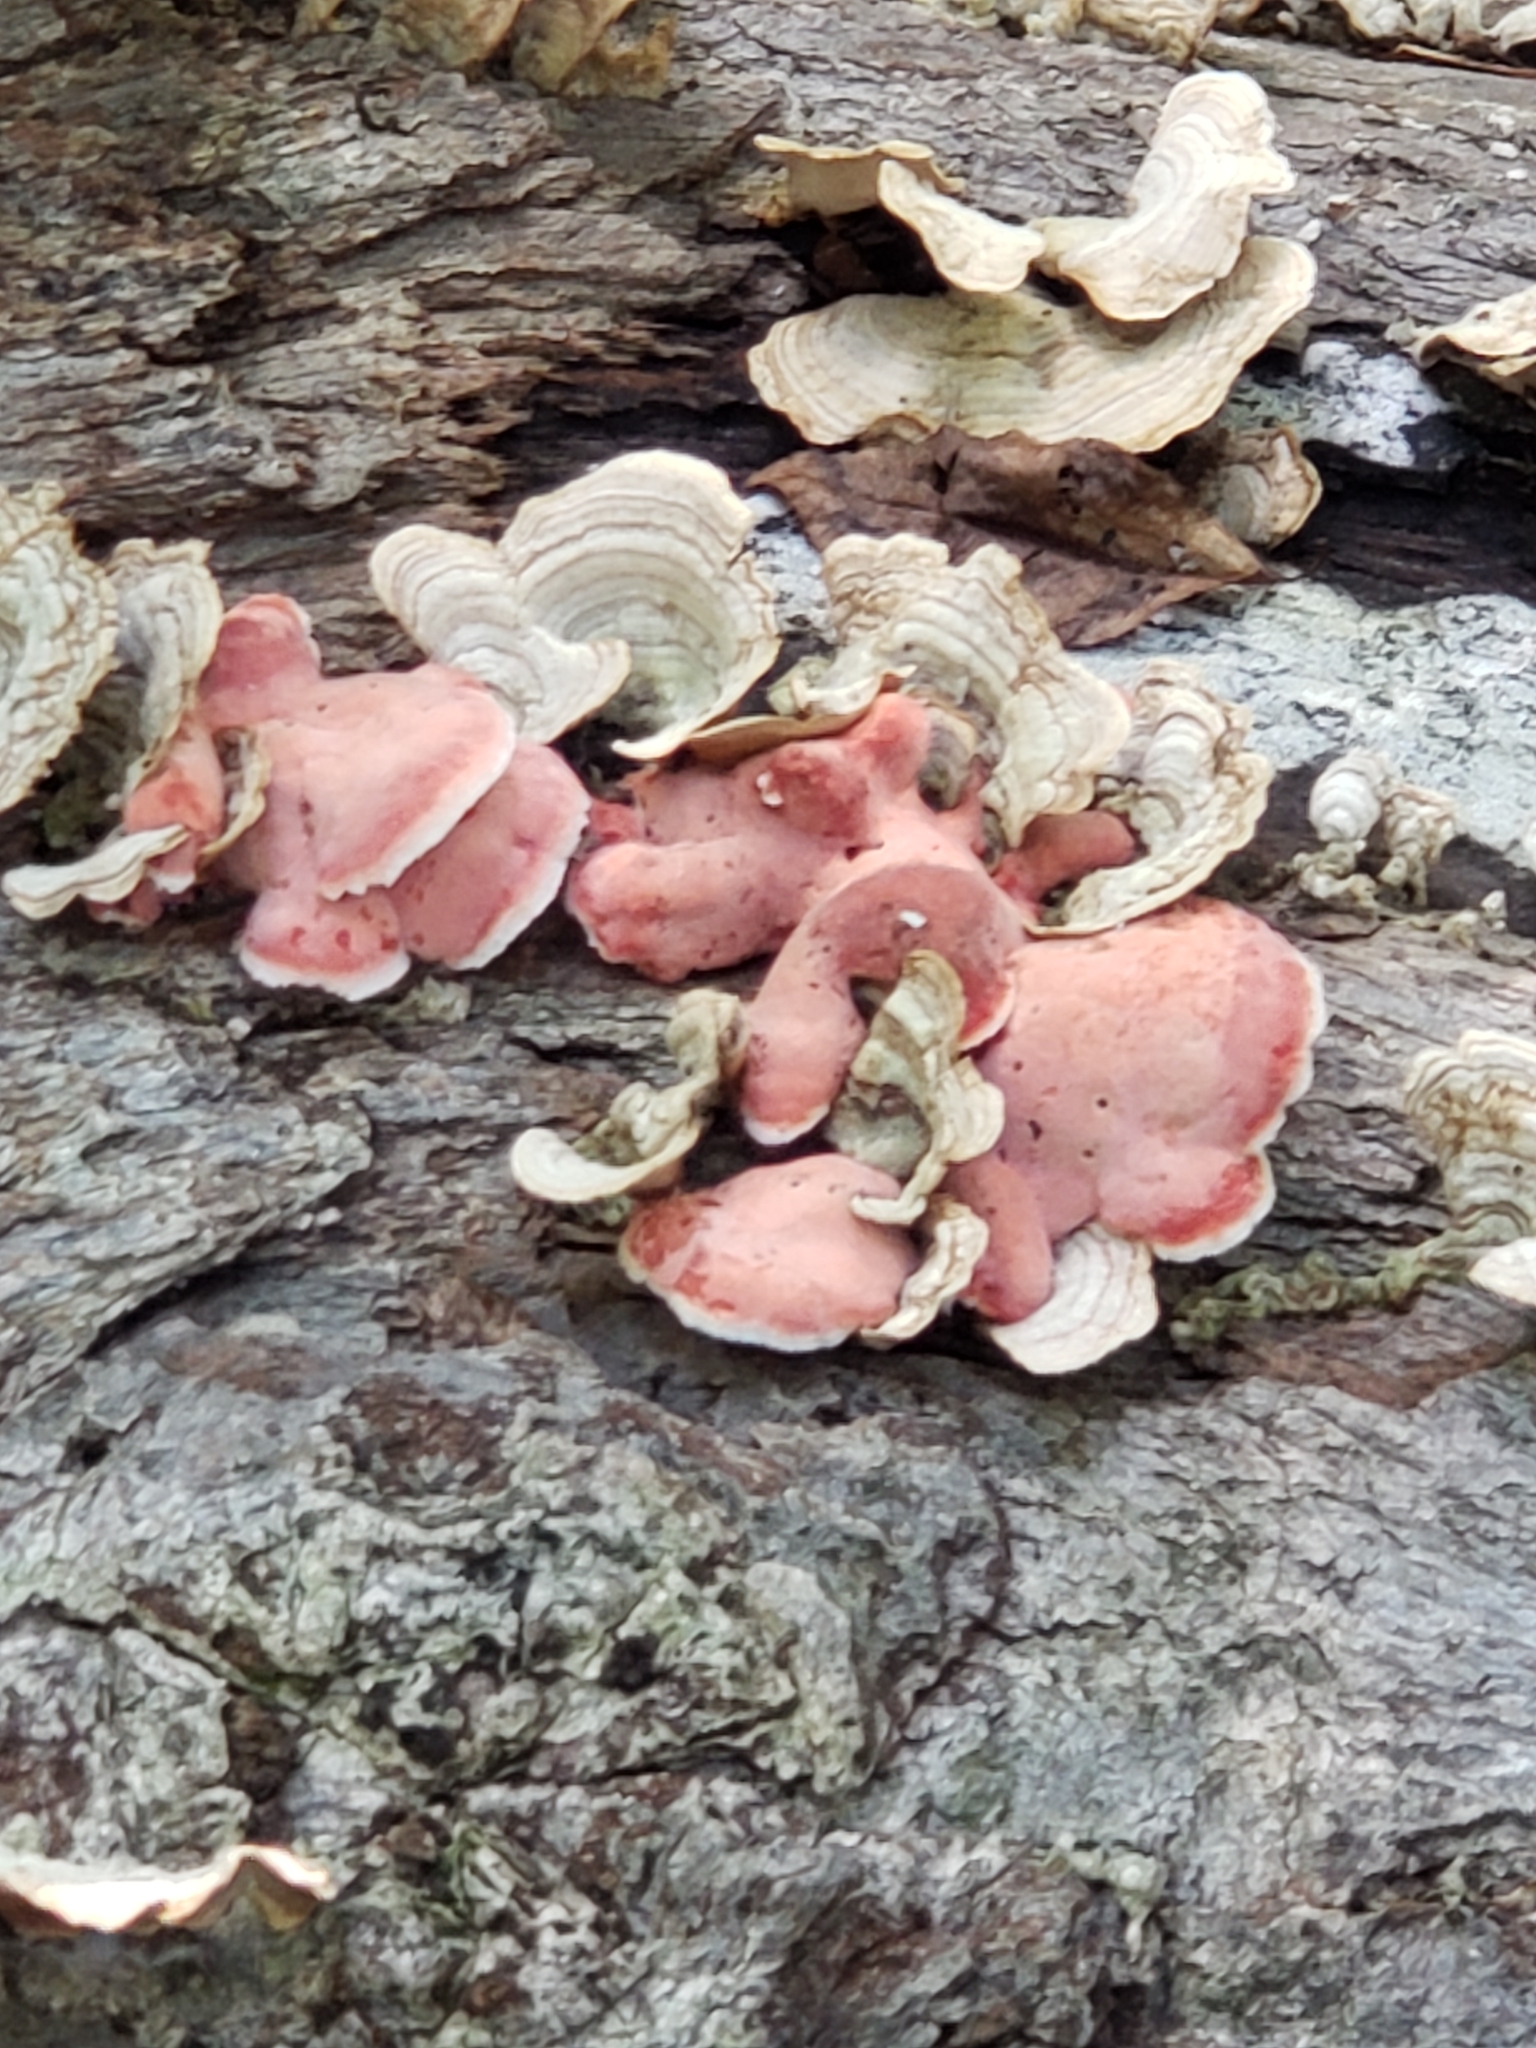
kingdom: Fungi
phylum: Basidiomycota
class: Agaricomycetes
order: Polyporales
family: Irpicaceae
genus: Byssomerulius
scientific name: Byssomerulius incarnatus
